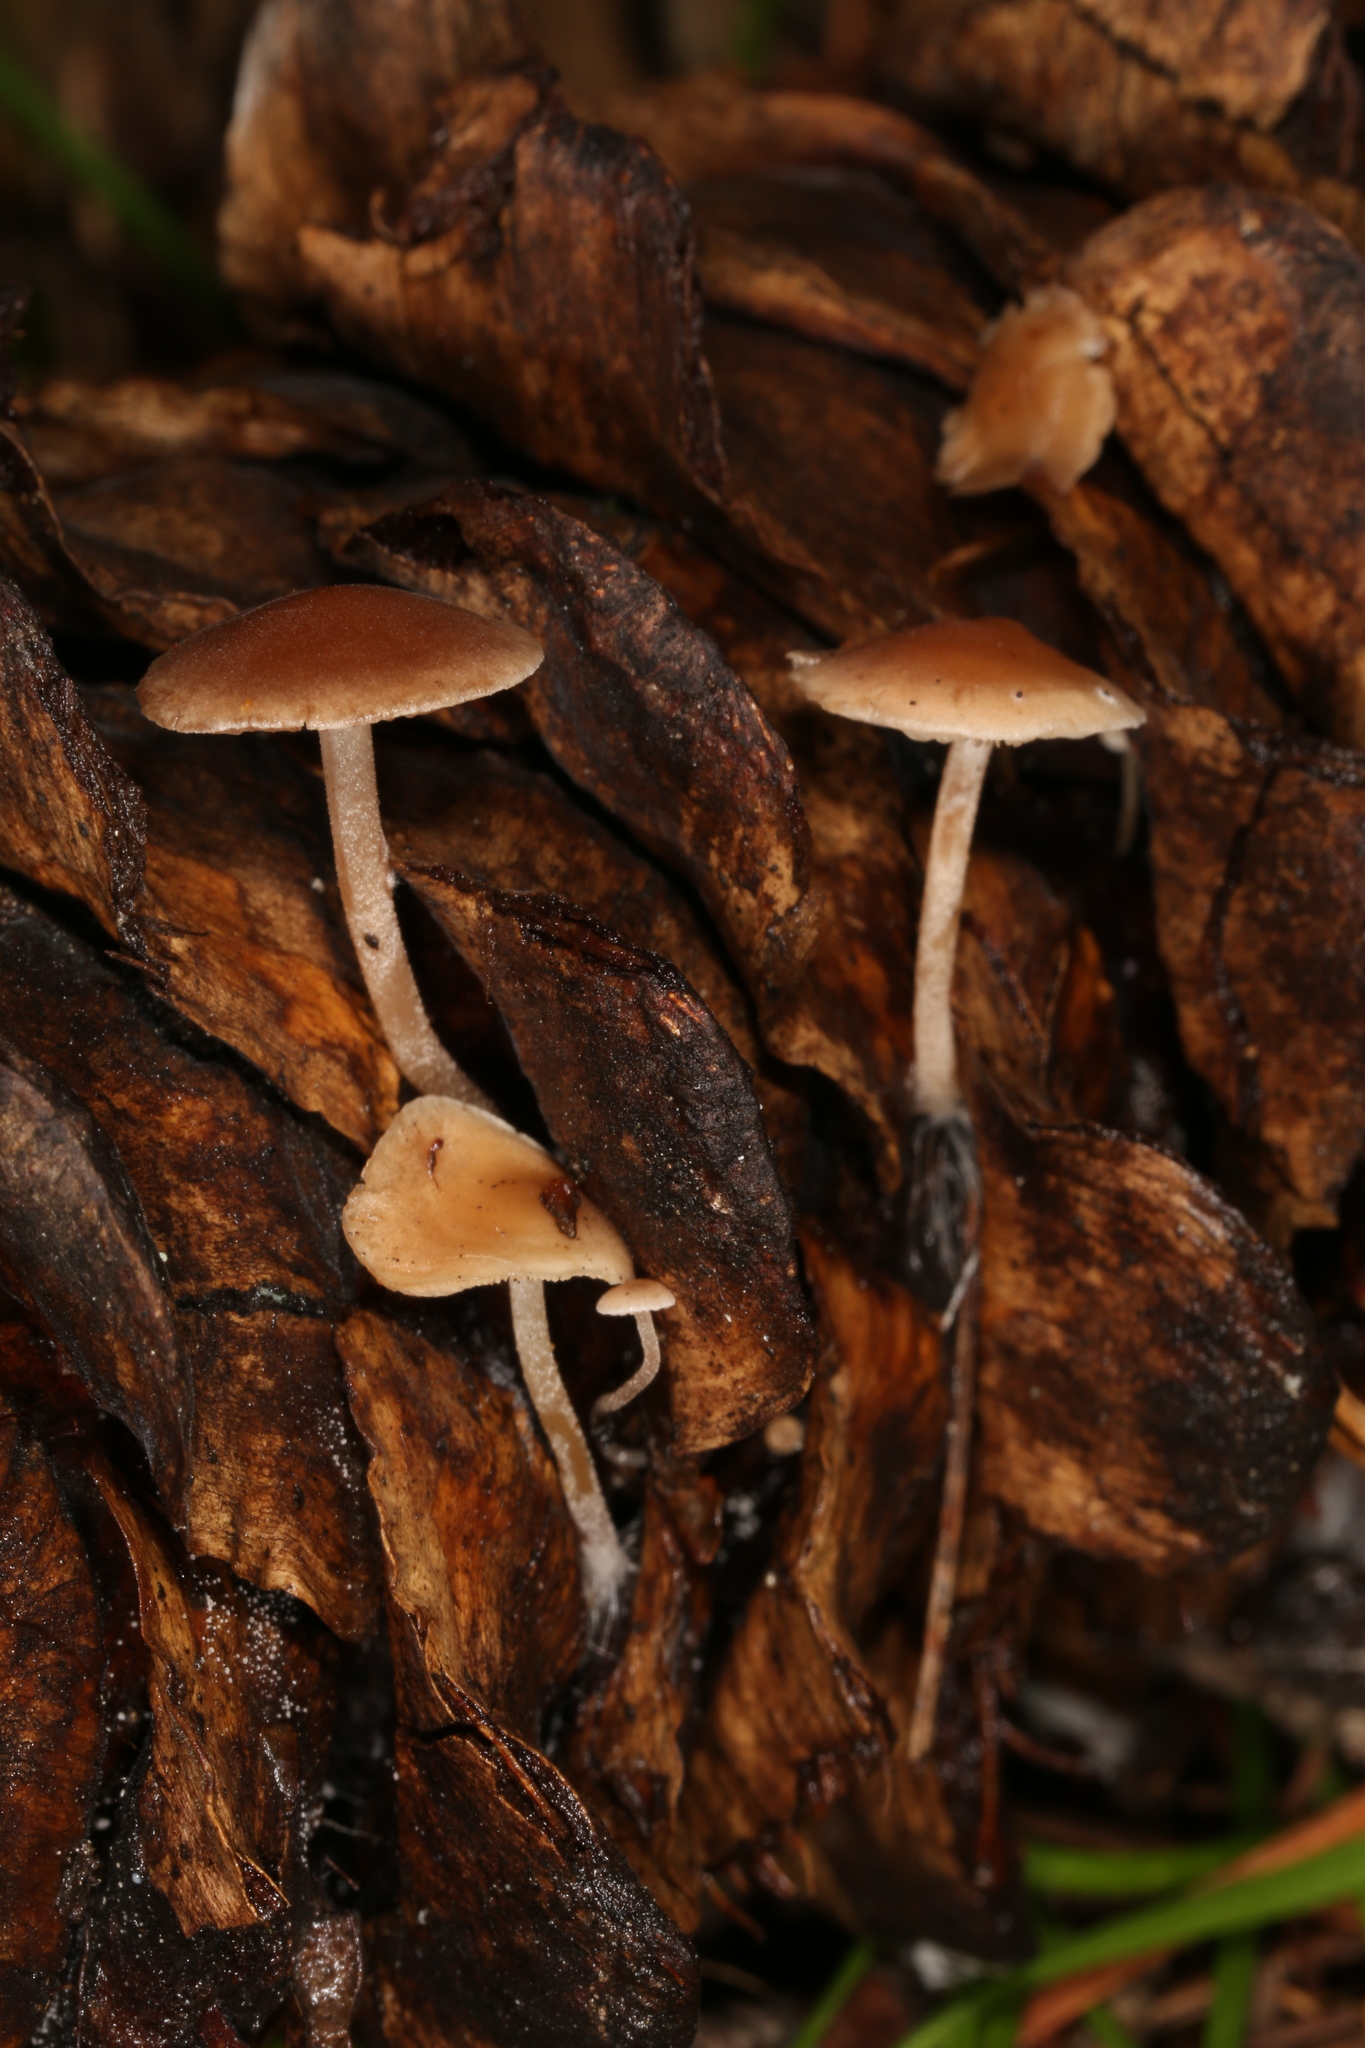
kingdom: Fungi
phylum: Basidiomycota
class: Agaricomycetes
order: Agaricales
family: Marasmiaceae
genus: Baeospora
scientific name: Baeospora myosura
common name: Conifercone cap
